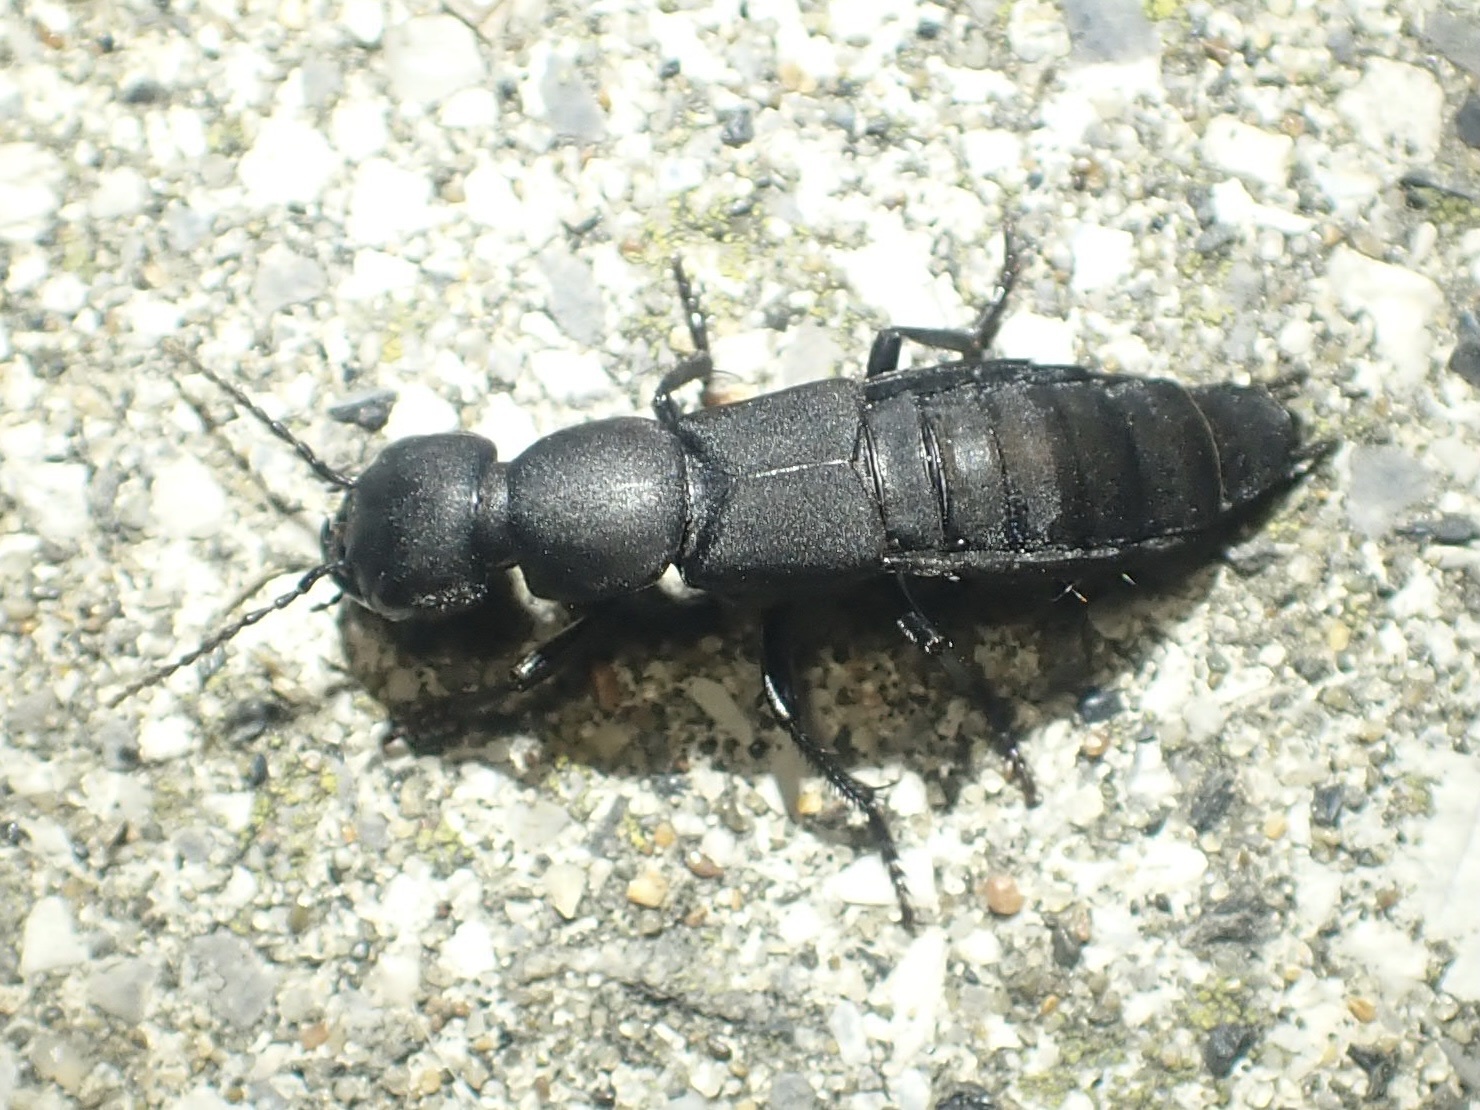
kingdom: Animalia
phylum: Arthropoda
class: Insecta
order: Coleoptera
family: Staphylinidae
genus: Ocypus
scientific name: Ocypus olens
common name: Devil's coach-horse
